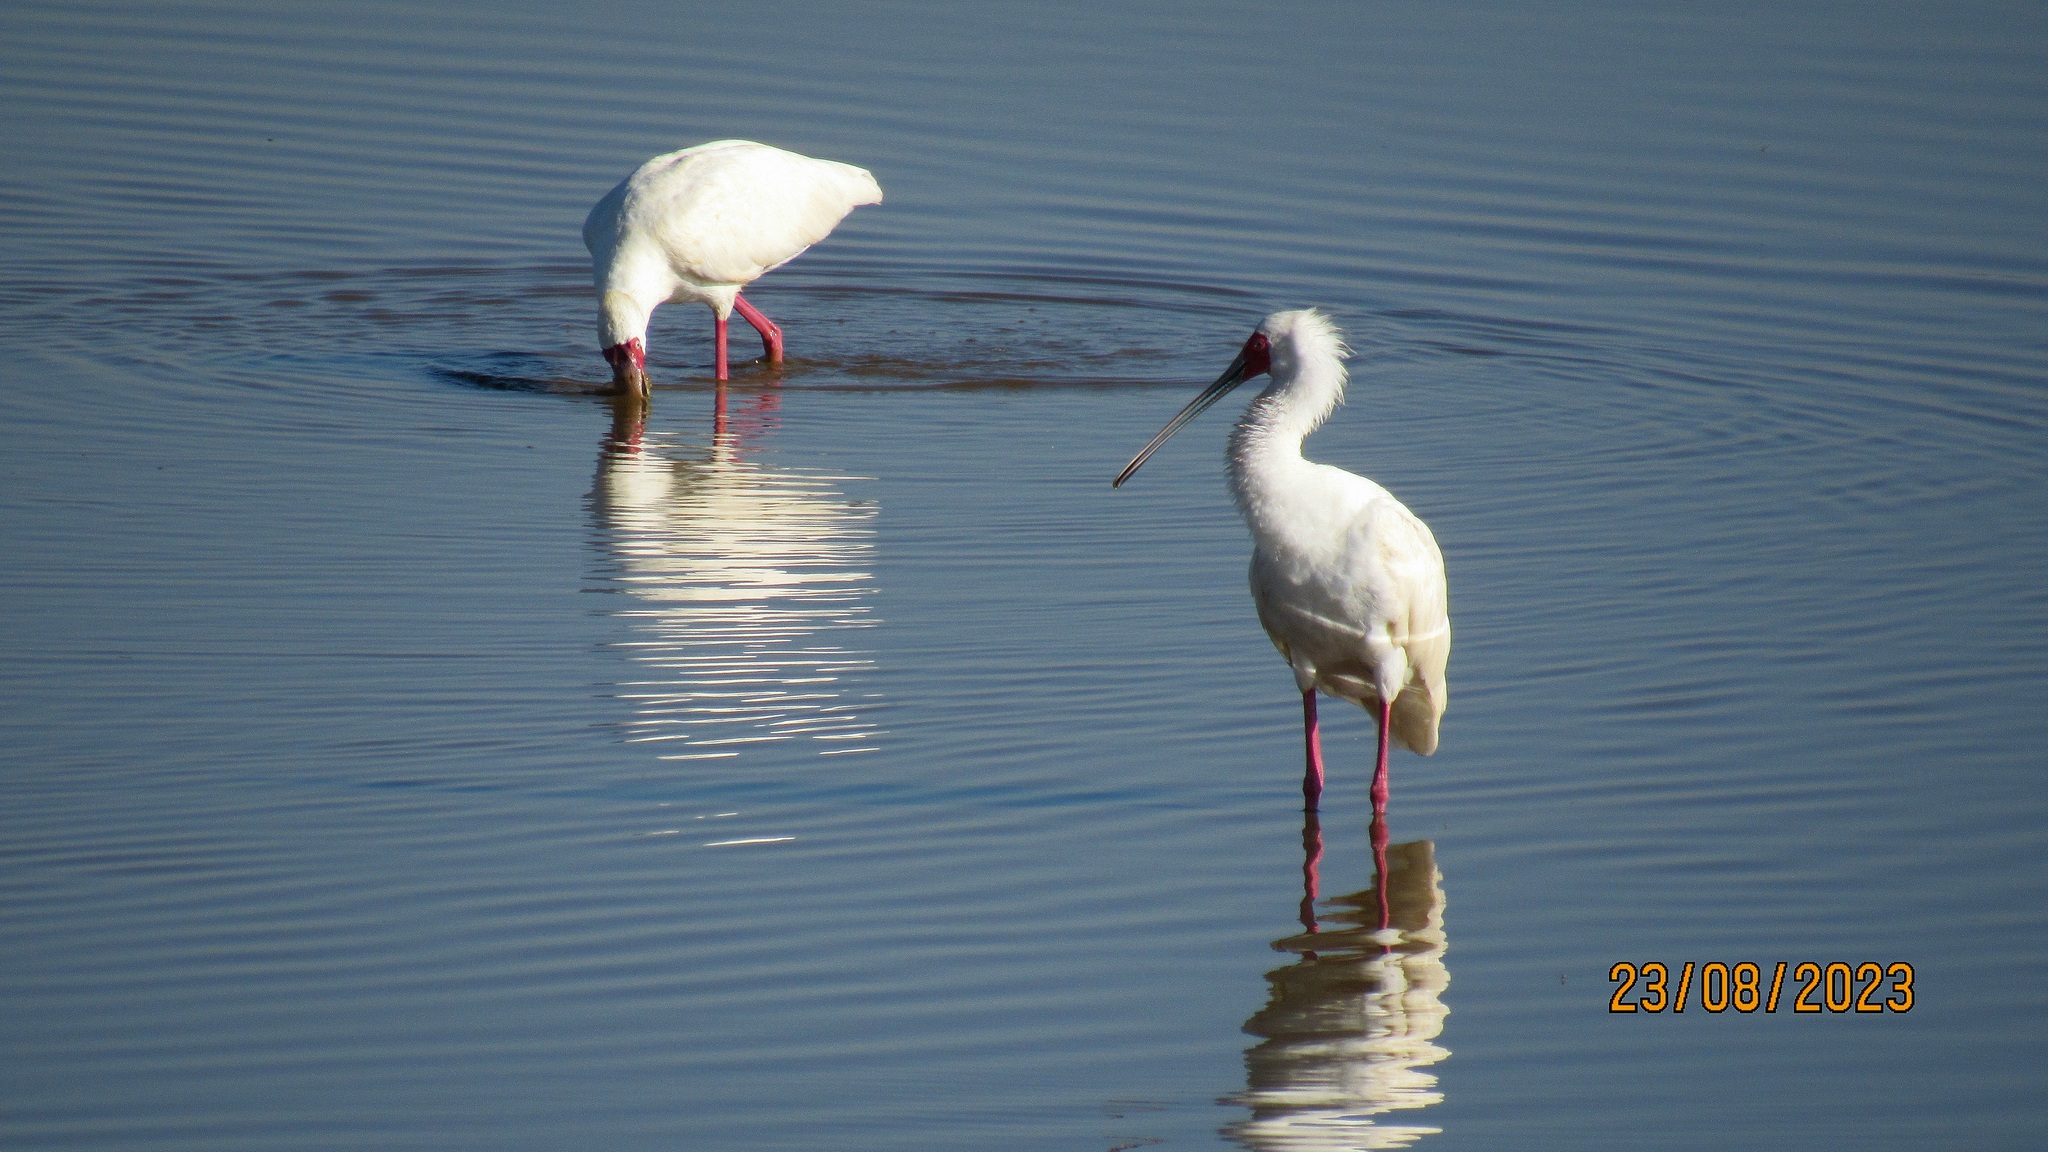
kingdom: Animalia
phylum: Chordata
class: Aves
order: Pelecaniformes
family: Threskiornithidae
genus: Platalea
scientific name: Platalea alba
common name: African spoonbill
